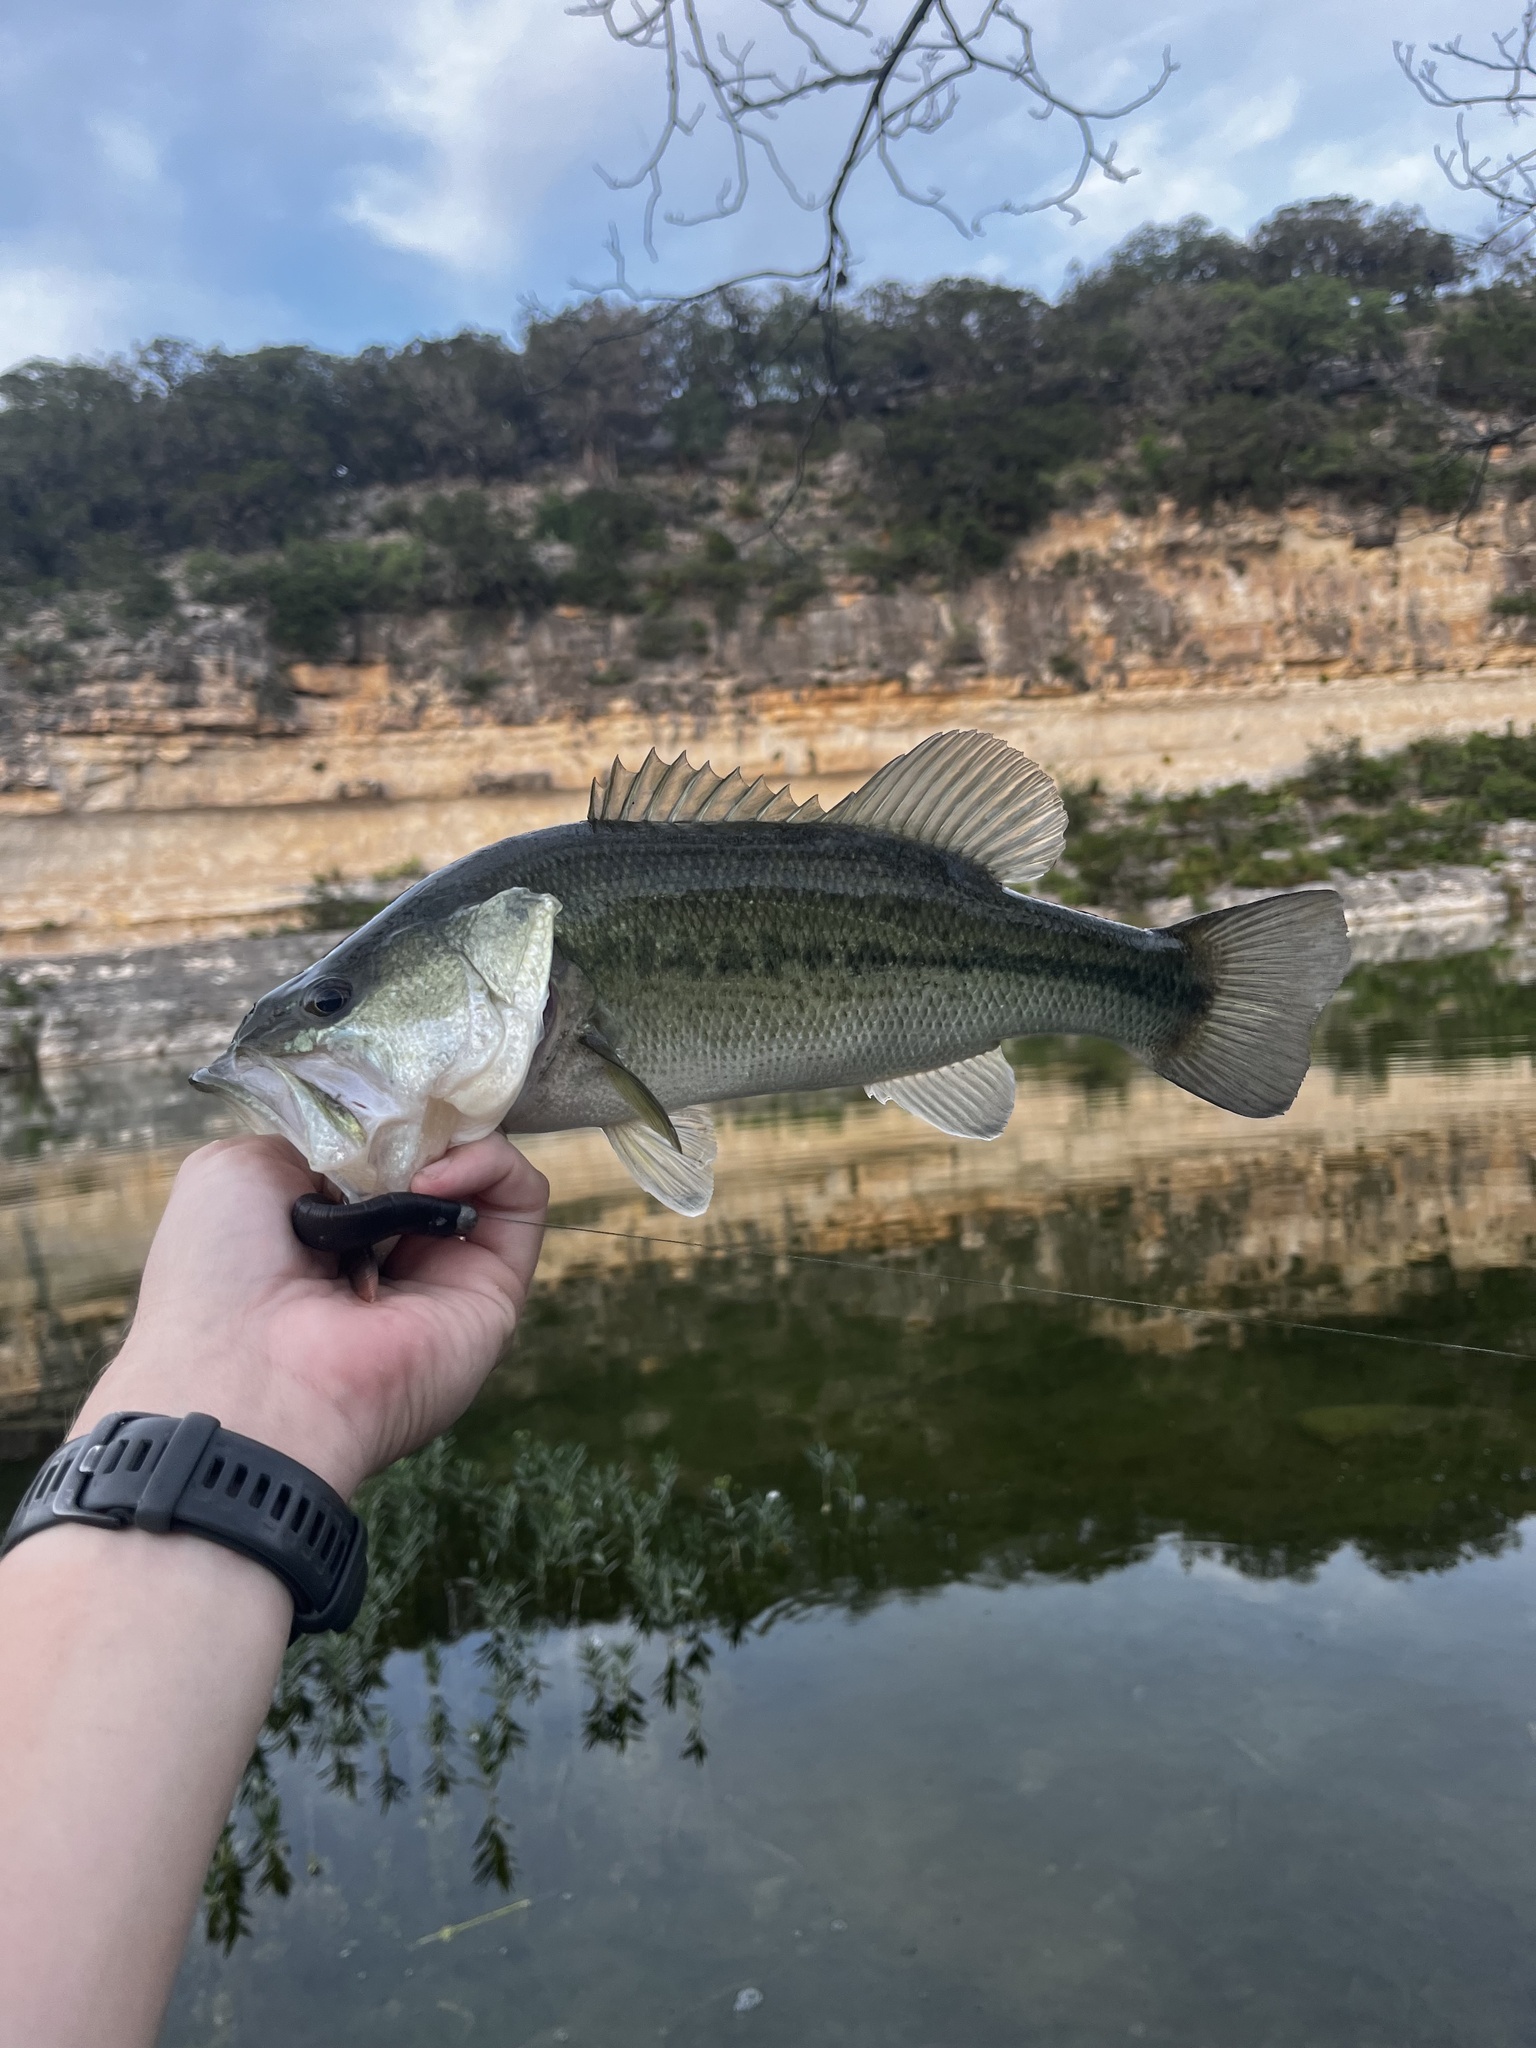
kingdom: Animalia
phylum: Chordata
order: Perciformes
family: Centrarchidae
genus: Micropterus
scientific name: Micropterus
